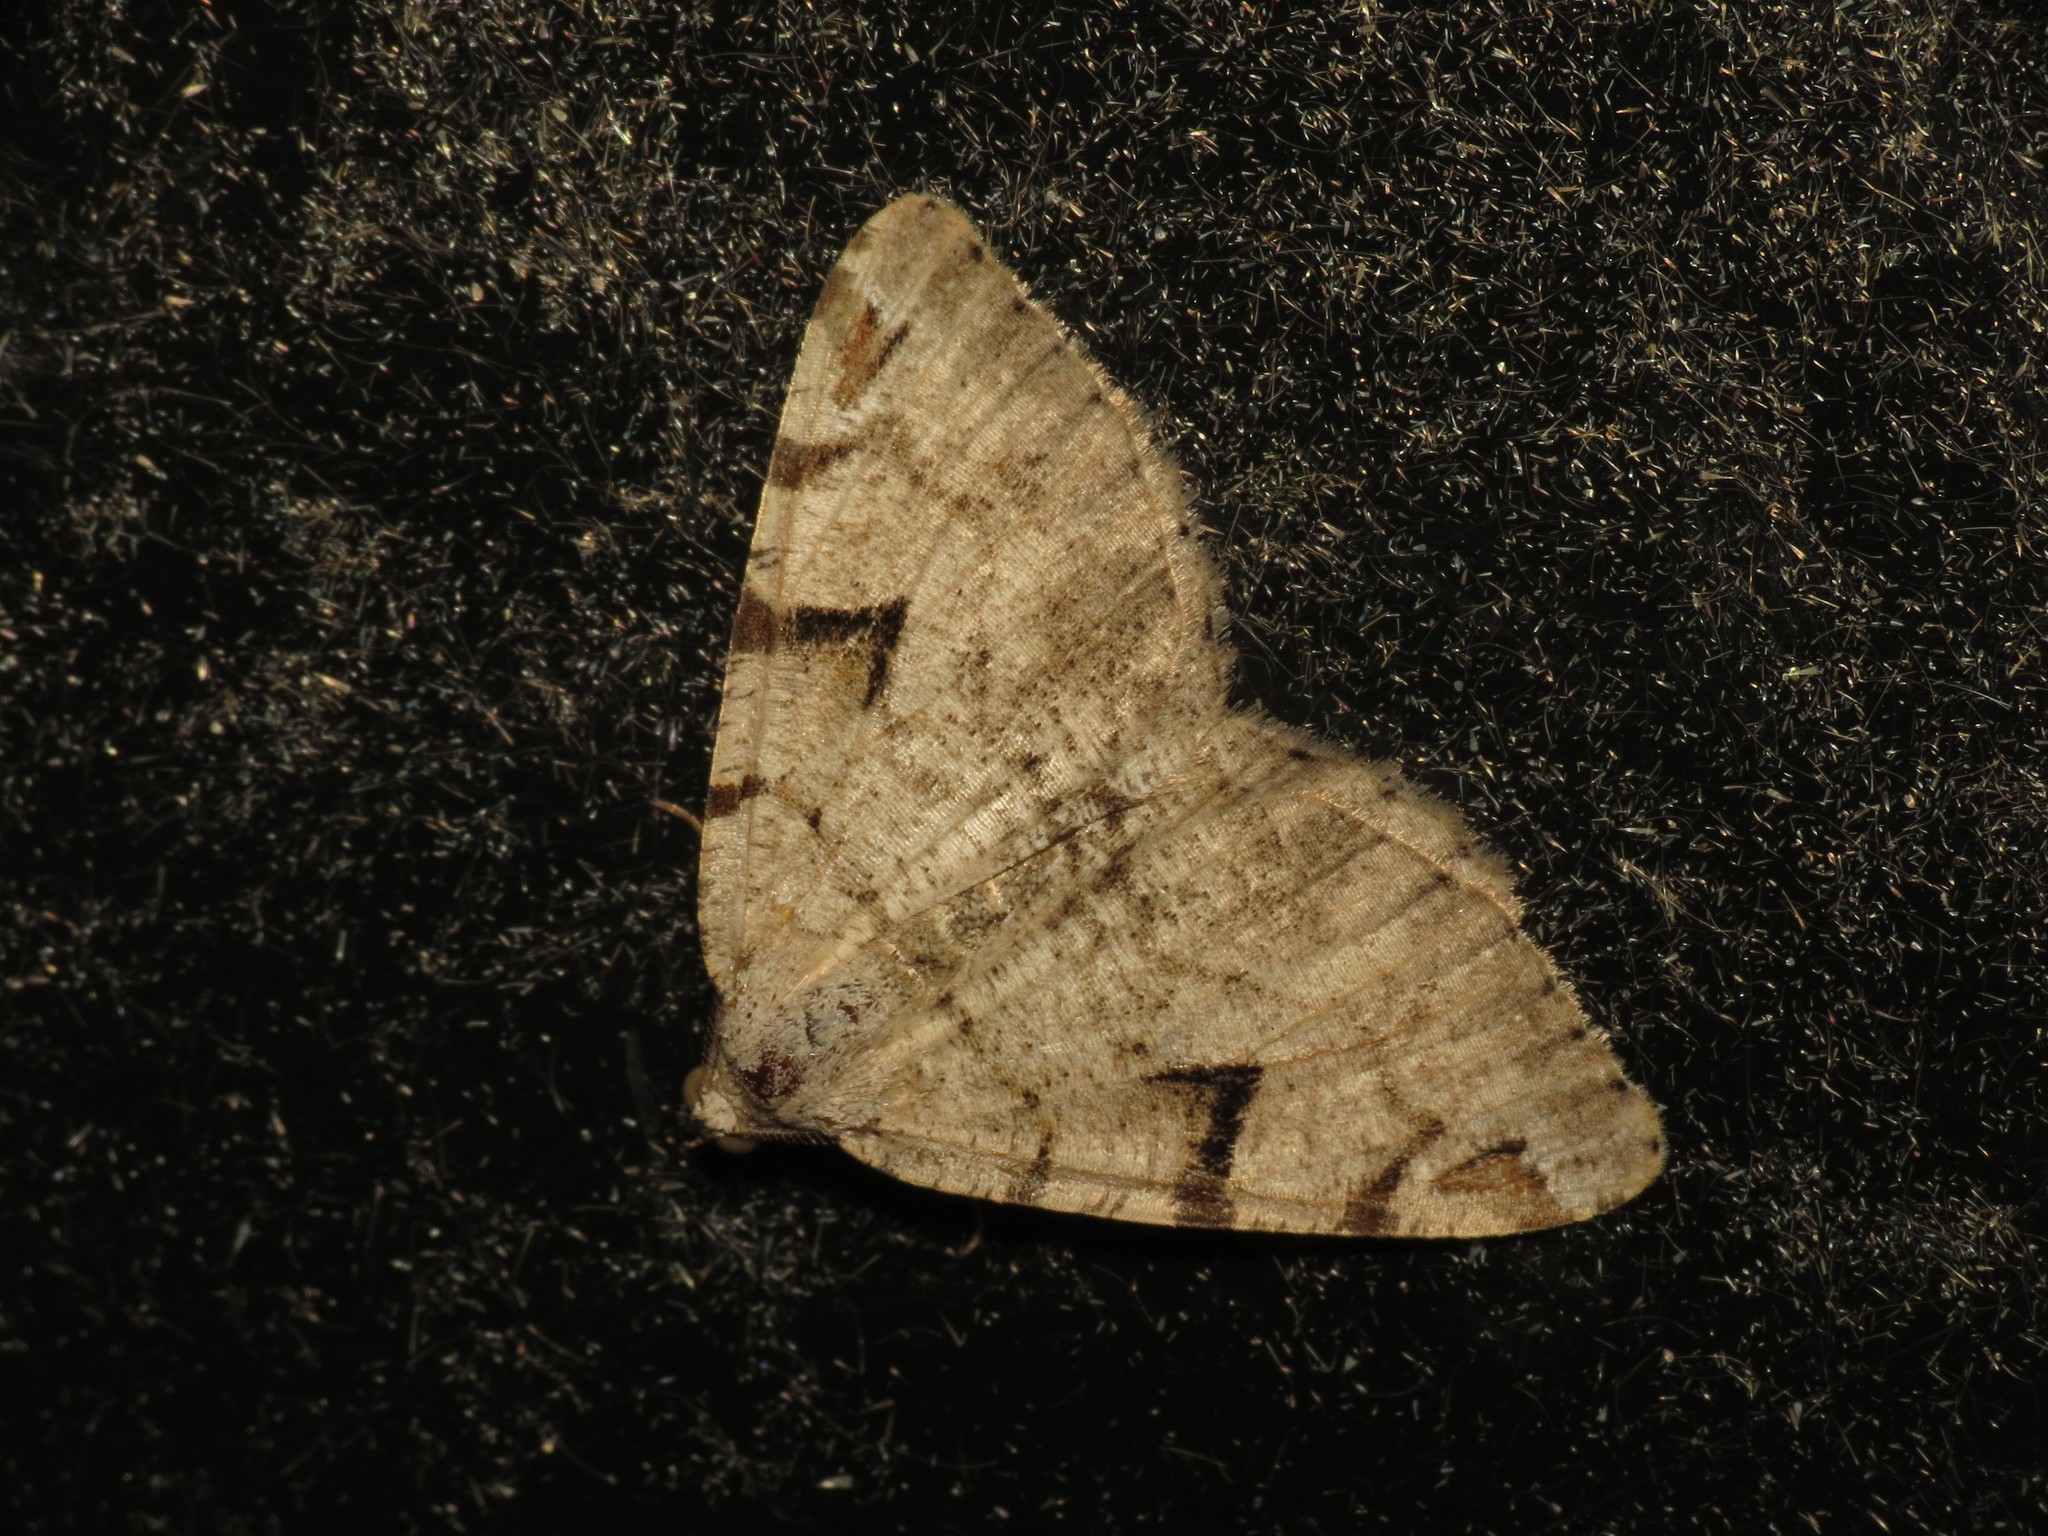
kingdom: Animalia
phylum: Arthropoda
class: Insecta
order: Lepidoptera
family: Geometridae
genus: Macaria
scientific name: Macaria wauaria
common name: V-moth
